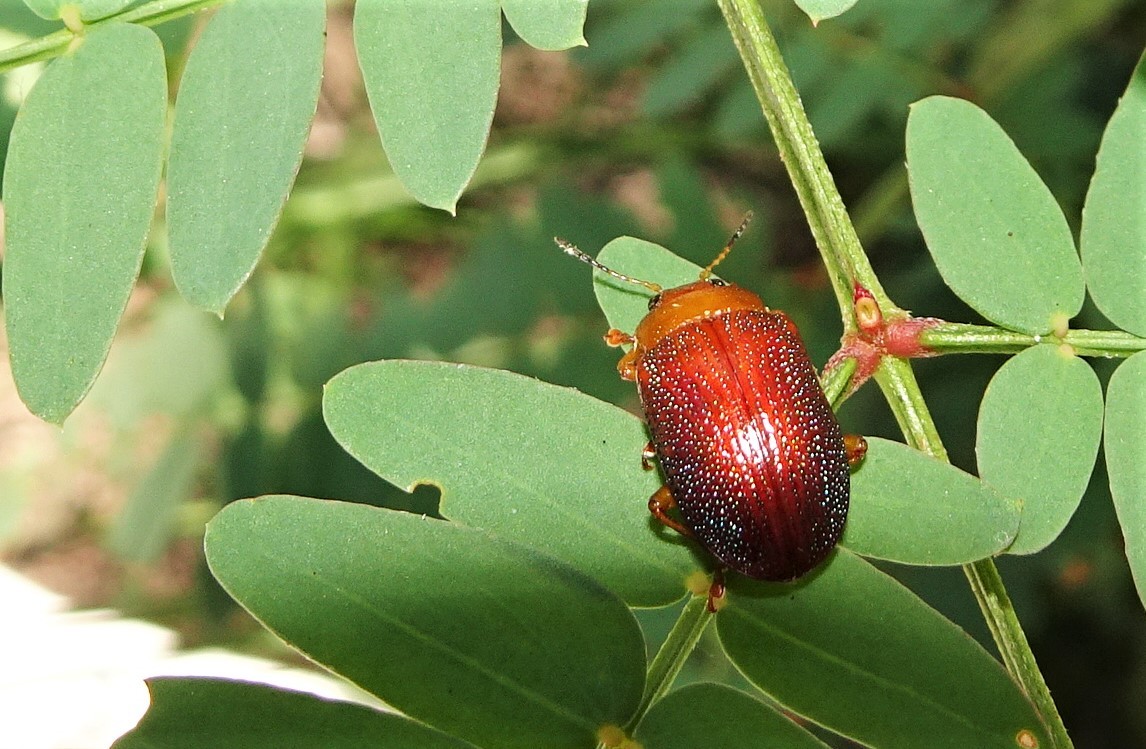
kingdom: Animalia
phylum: Arthropoda
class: Insecta
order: Coleoptera
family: Chrysomelidae
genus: Calomela
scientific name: Calomela
